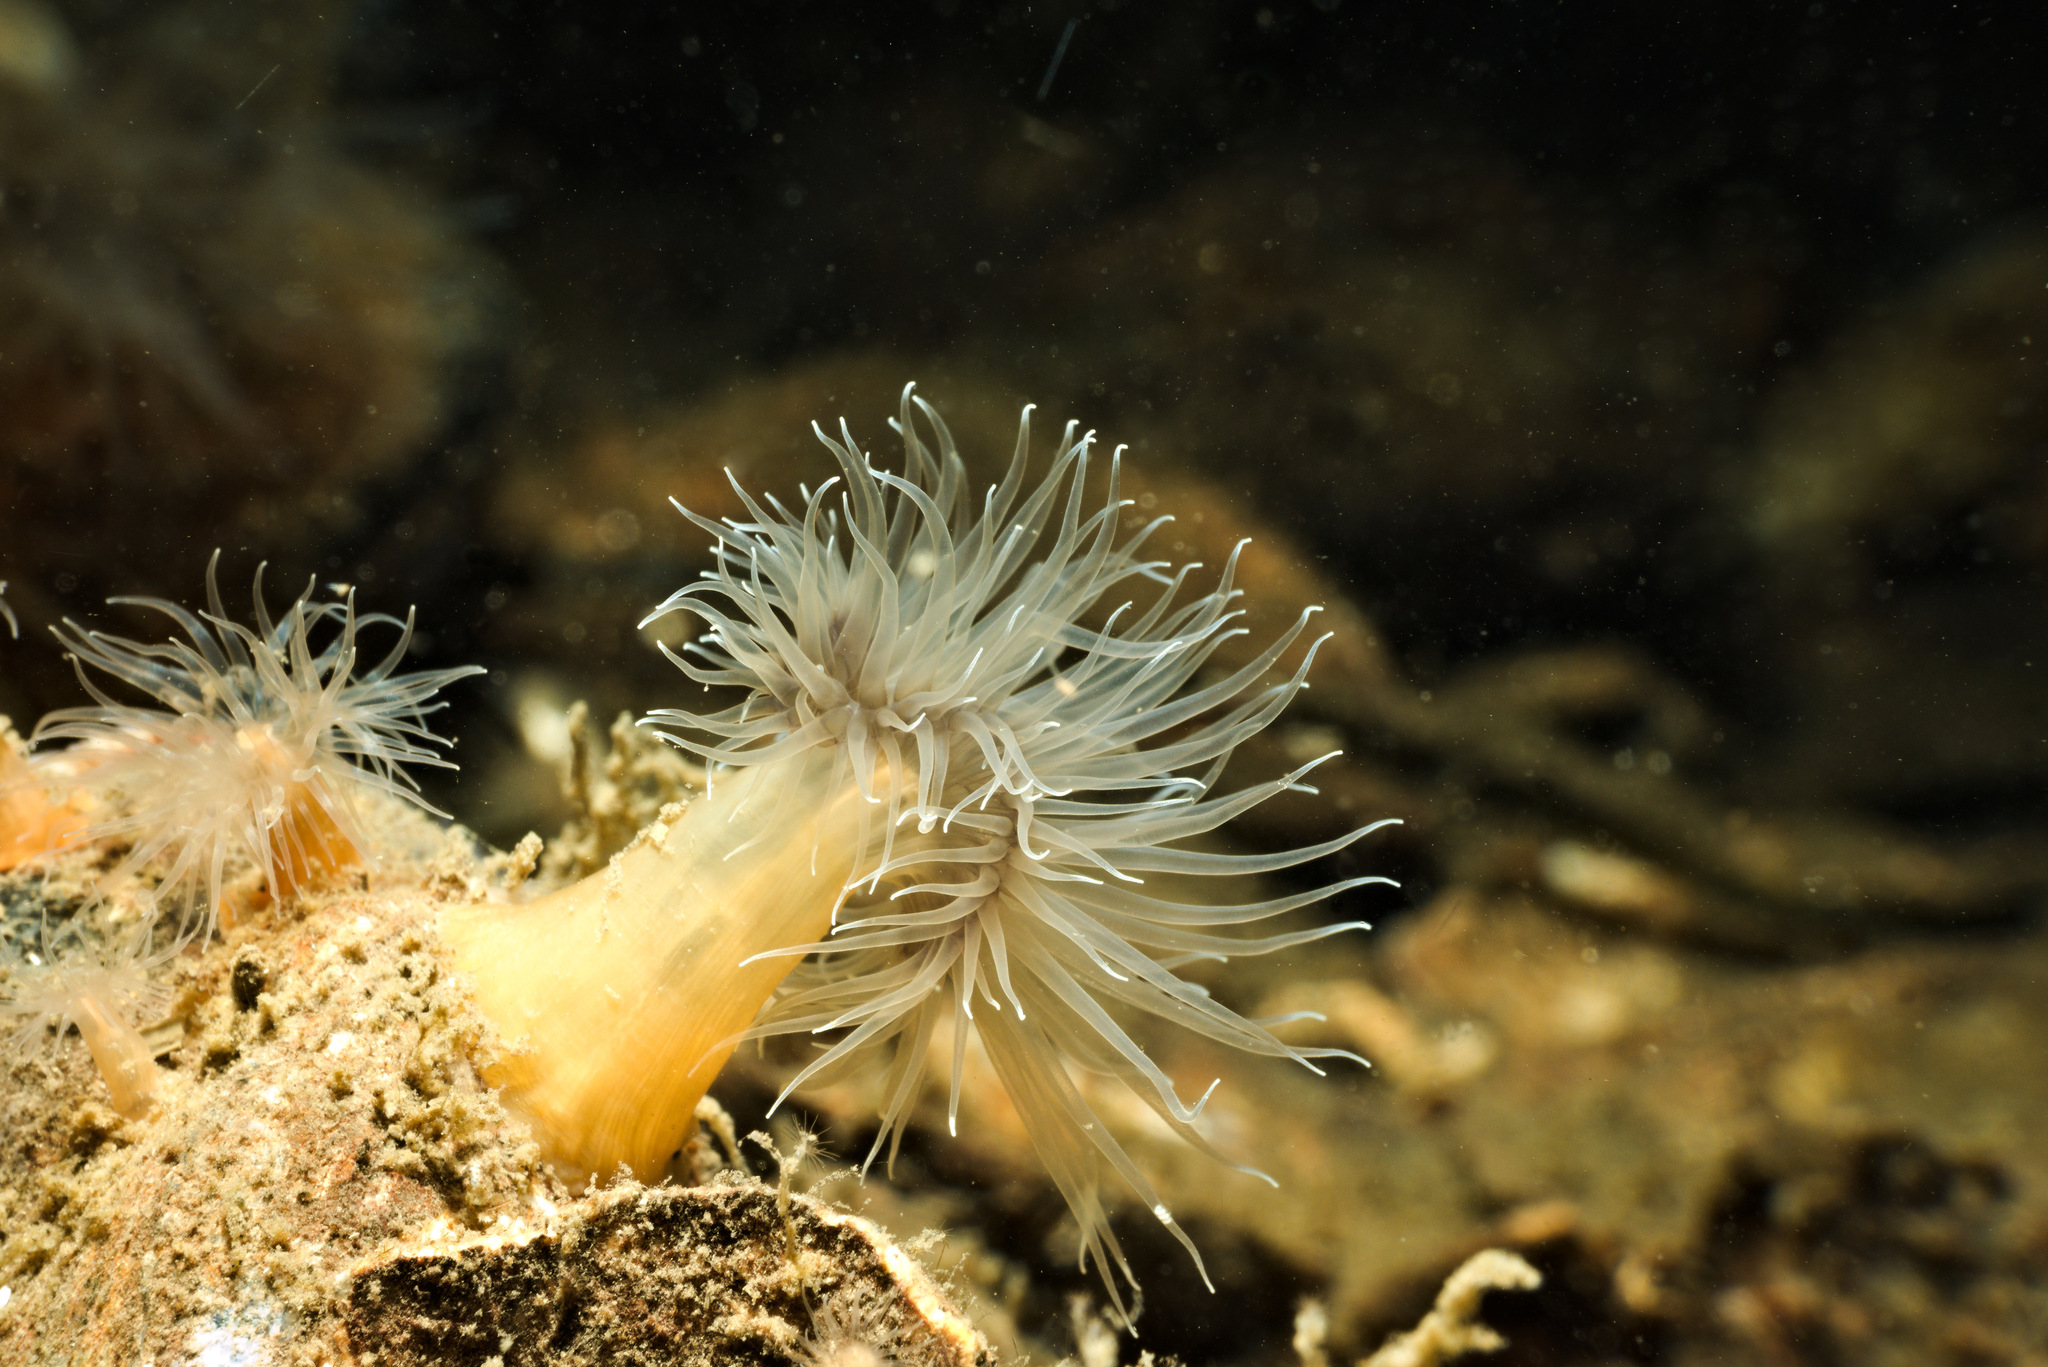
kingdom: Animalia
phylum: Cnidaria
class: Anthozoa
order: Actiniaria
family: Metridiidae
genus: Metridium
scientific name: Metridium senile
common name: Clonal plumose anemone
